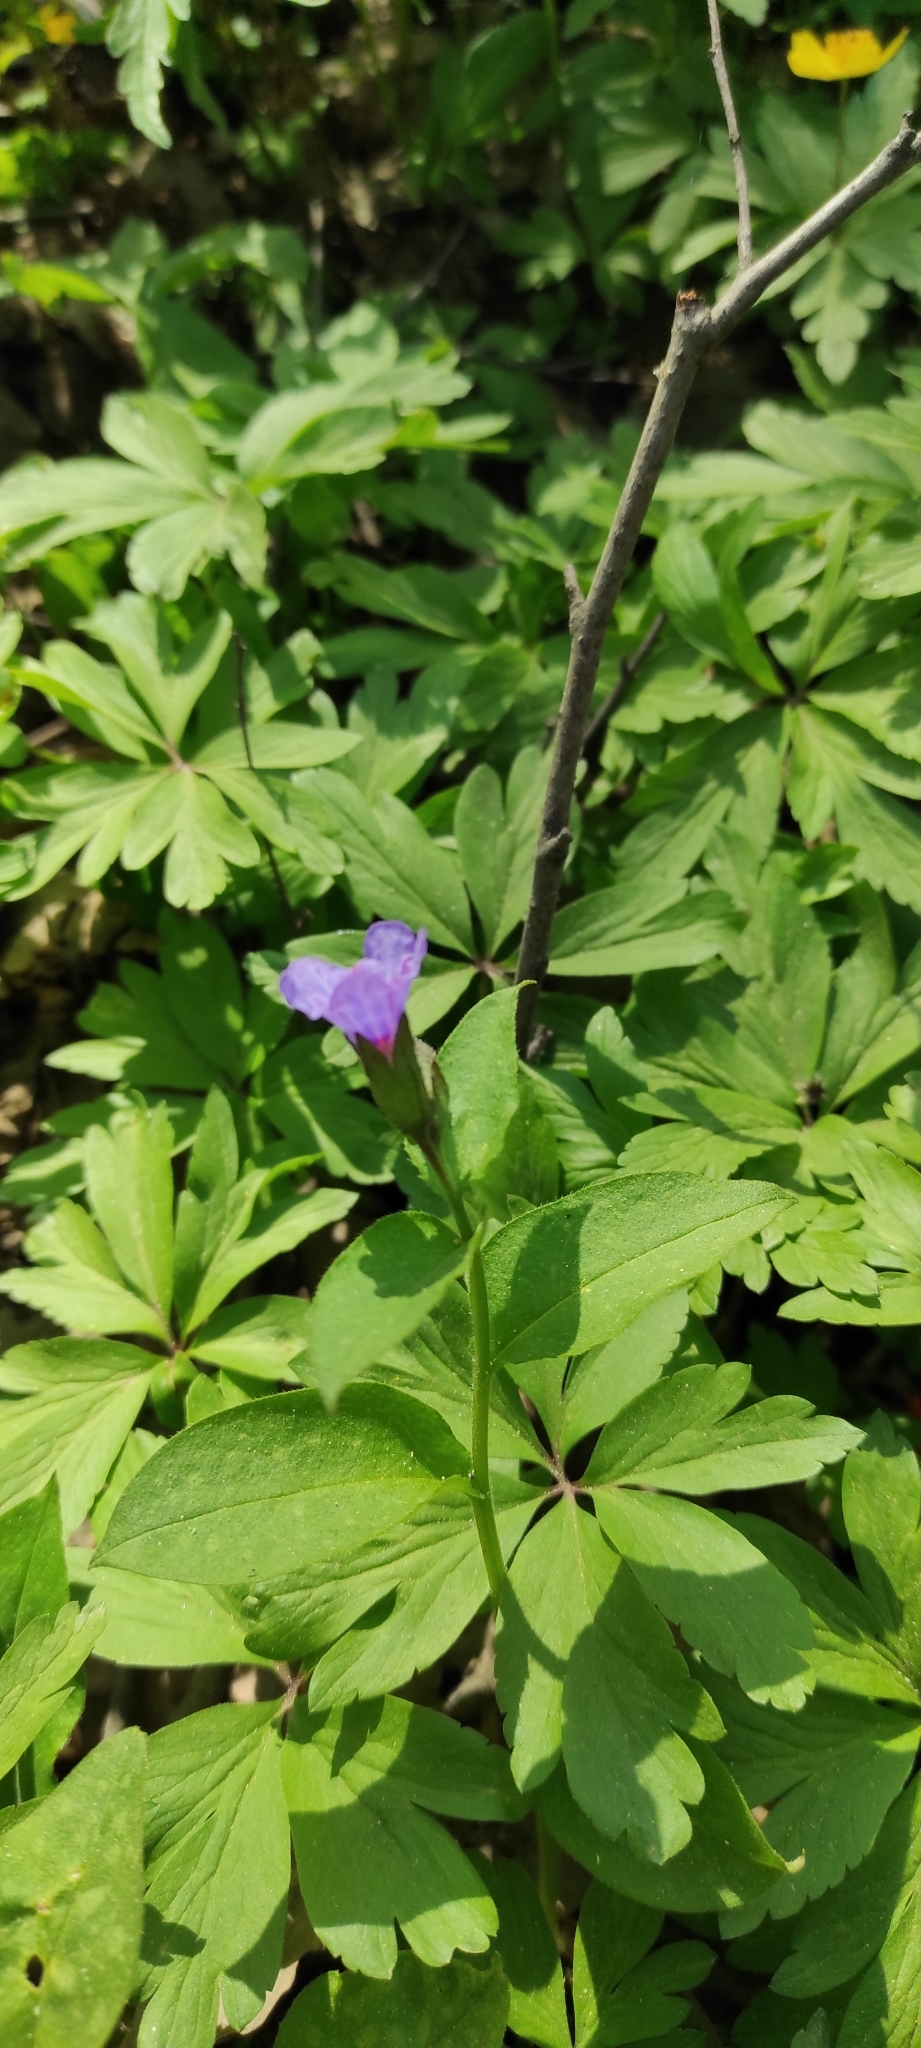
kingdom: Plantae
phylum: Tracheophyta
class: Magnoliopsida
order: Boraginales
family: Boraginaceae
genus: Pulmonaria
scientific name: Pulmonaria obscura
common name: Suffolk lungwort
